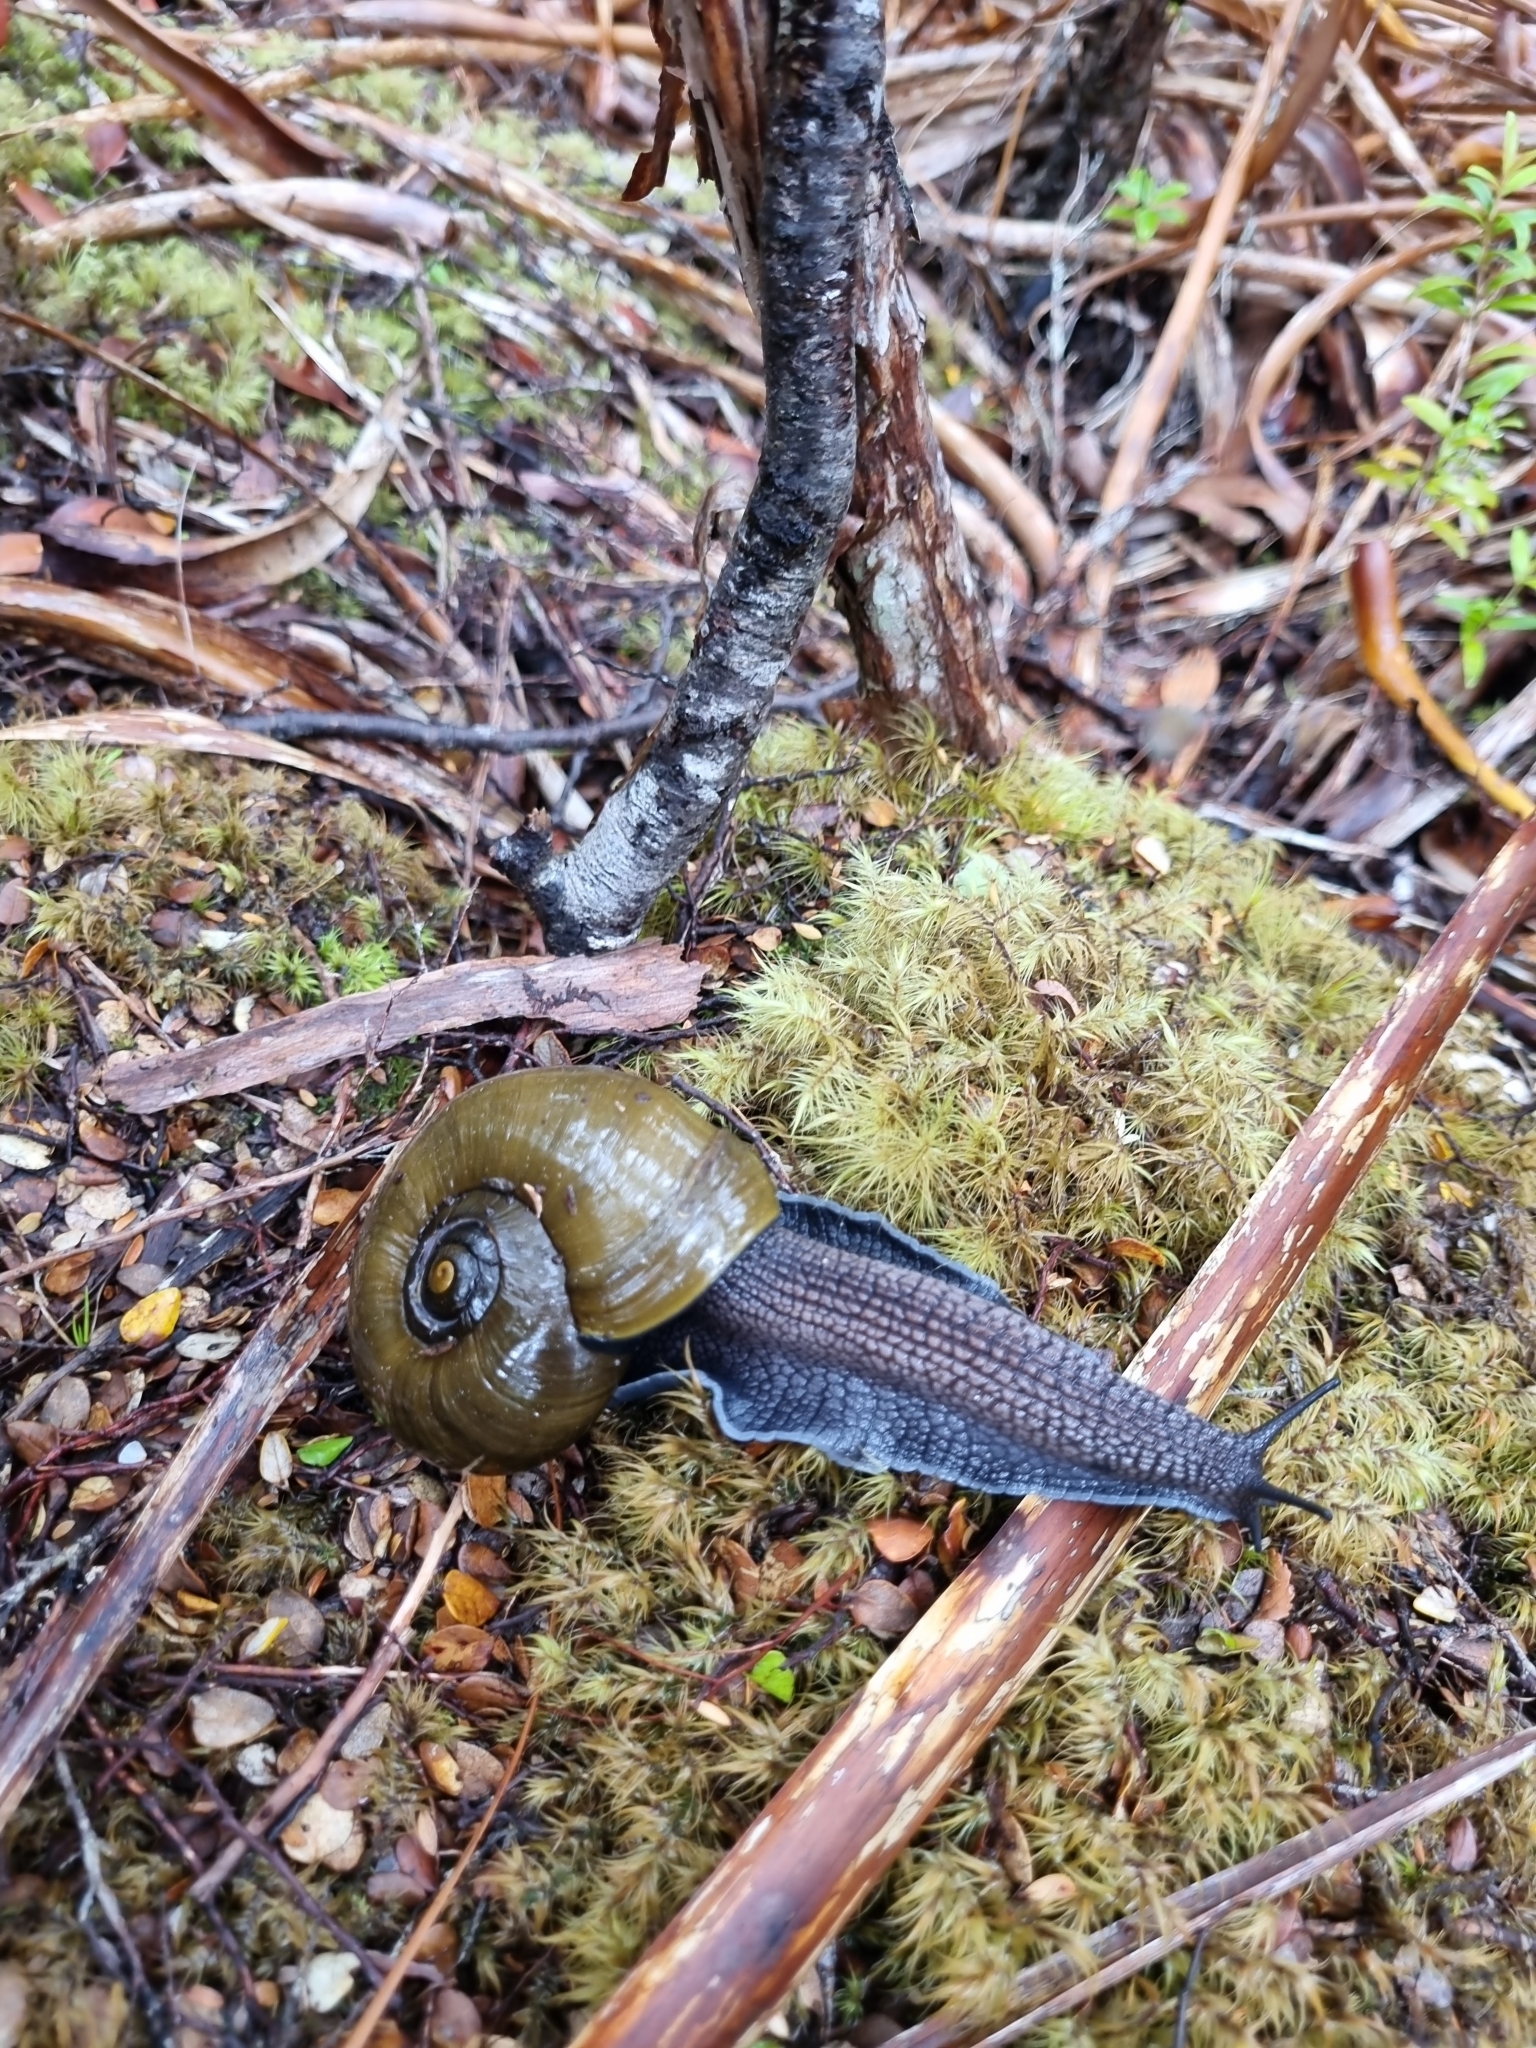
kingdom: Animalia
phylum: Mollusca
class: Gastropoda
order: Stylommatophora
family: Rhytididae
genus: Powelliphanta
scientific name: Powelliphanta superba
